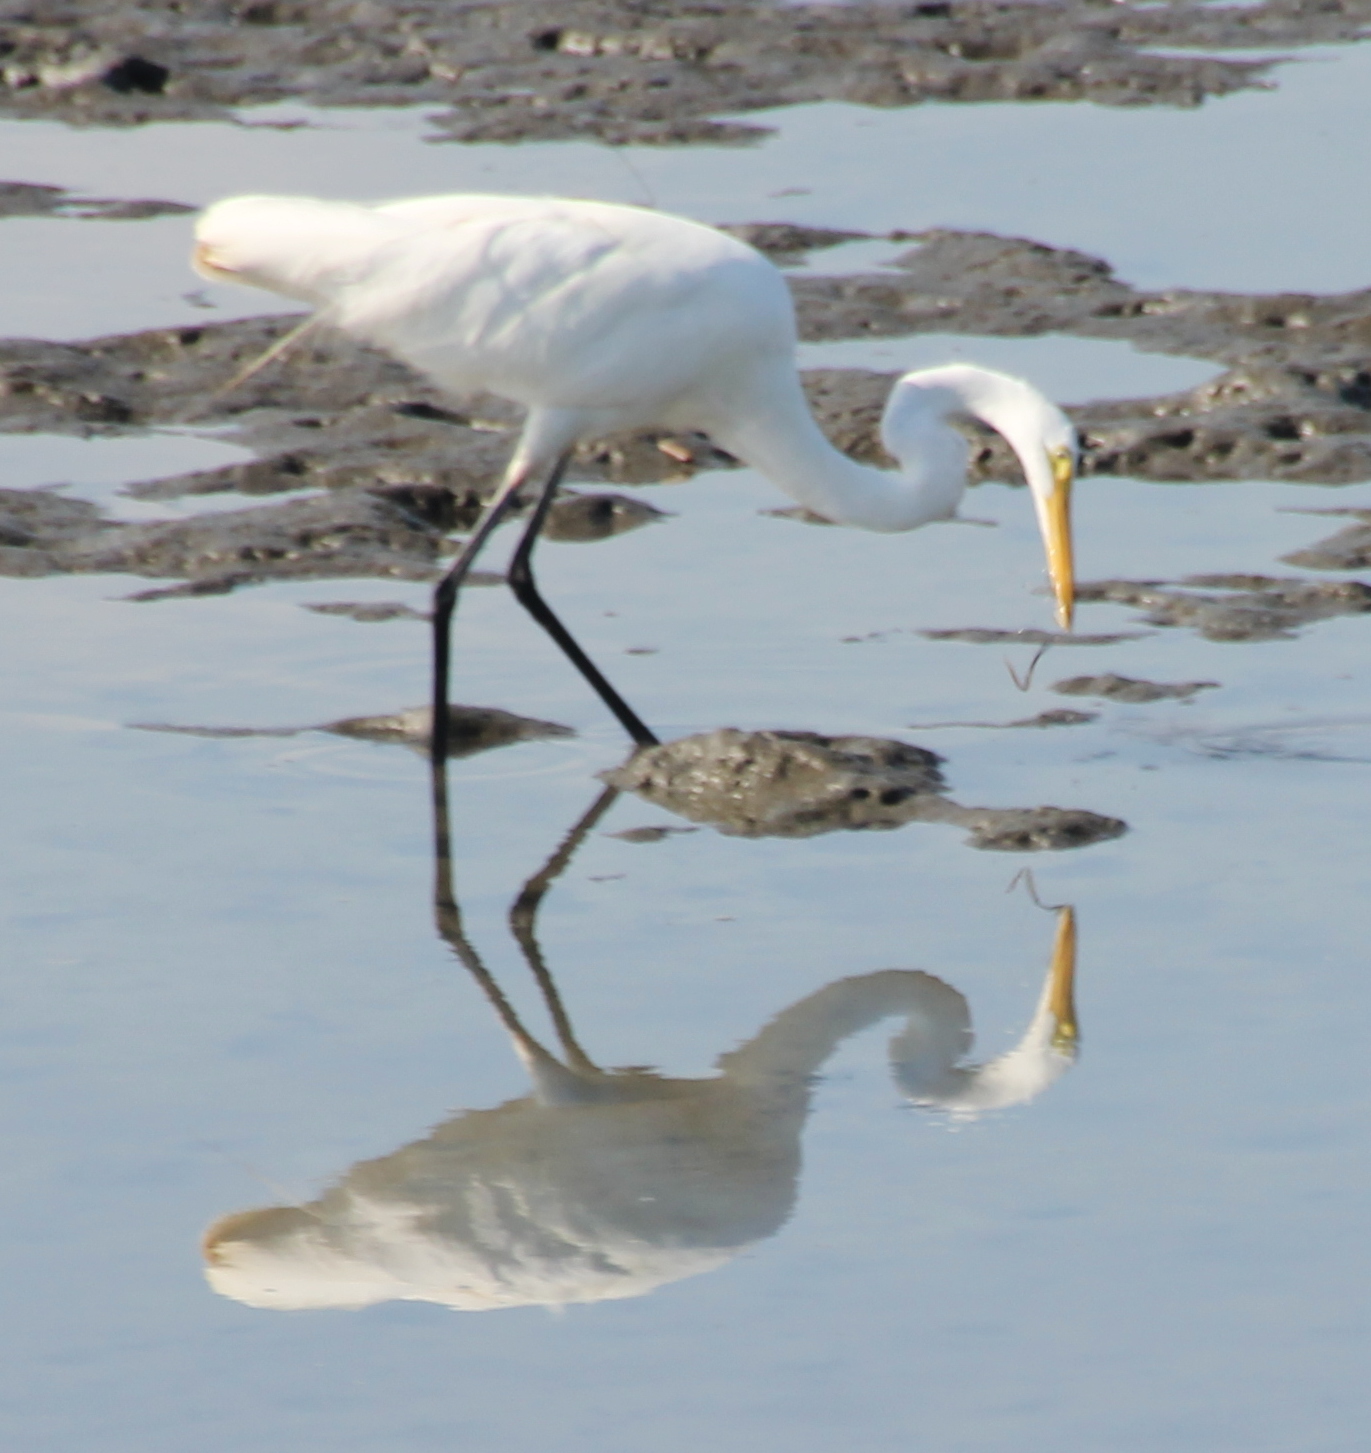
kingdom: Animalia
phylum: Chordata
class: Aves
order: Pelecaniformes
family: Ardeidae
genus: Ardea
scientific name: Ardea alba
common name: Great egret
